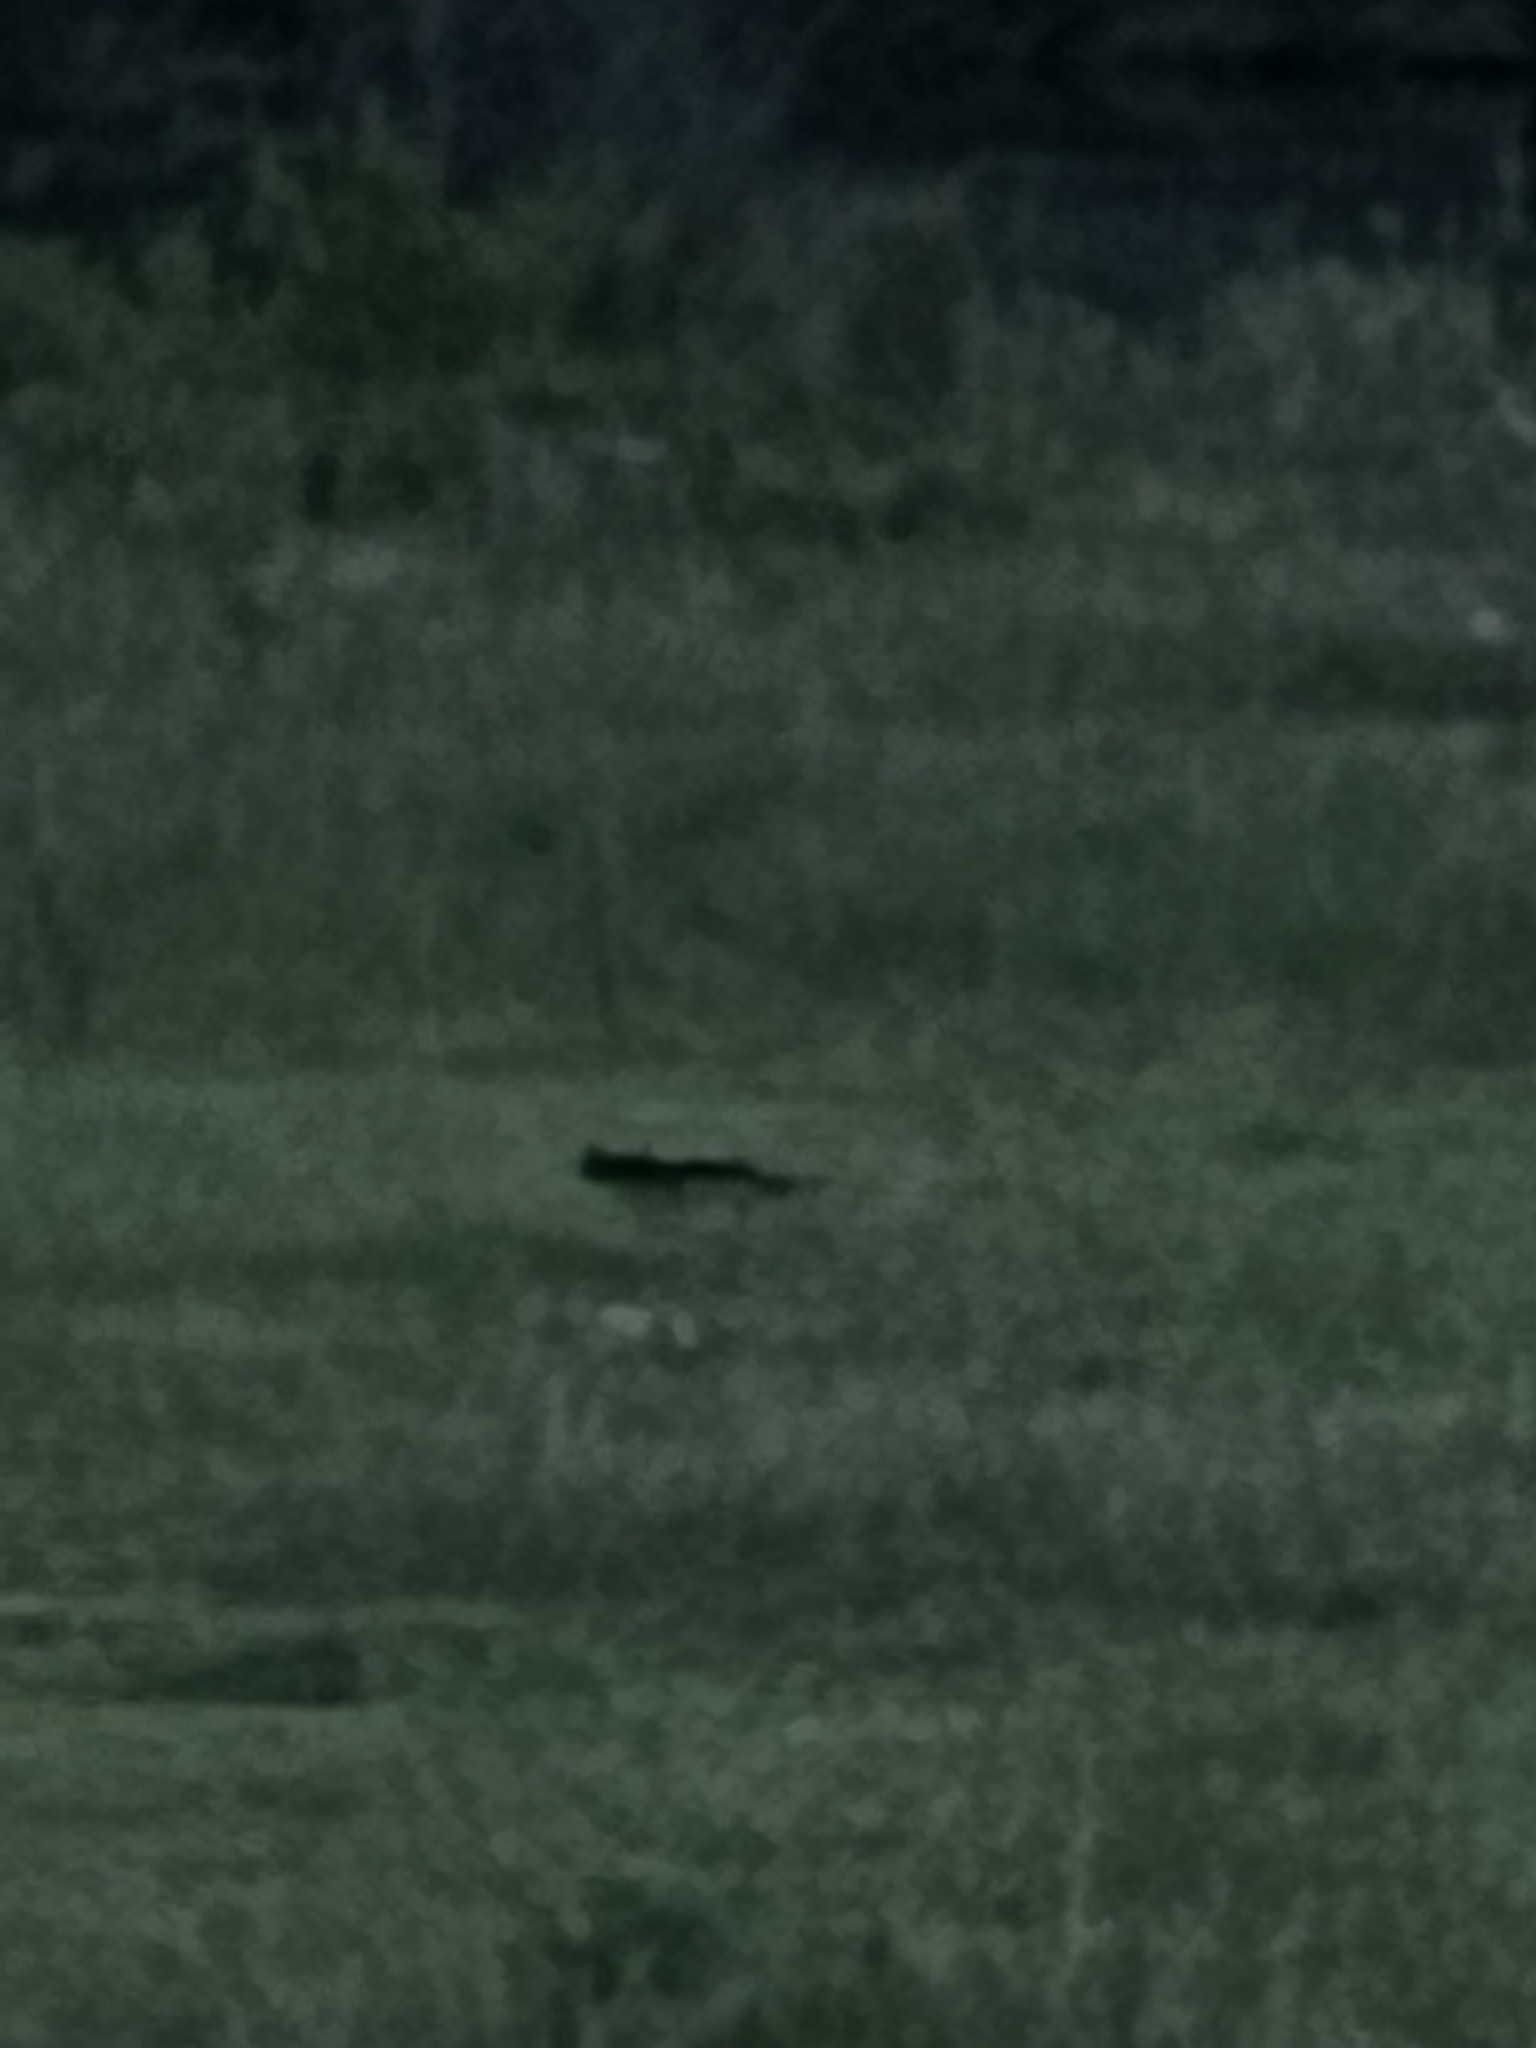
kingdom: Animalia
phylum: Chordata
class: Mammalia
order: Carnivora
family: Felidae
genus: Felis
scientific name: Felis catus
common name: Domestic cat
